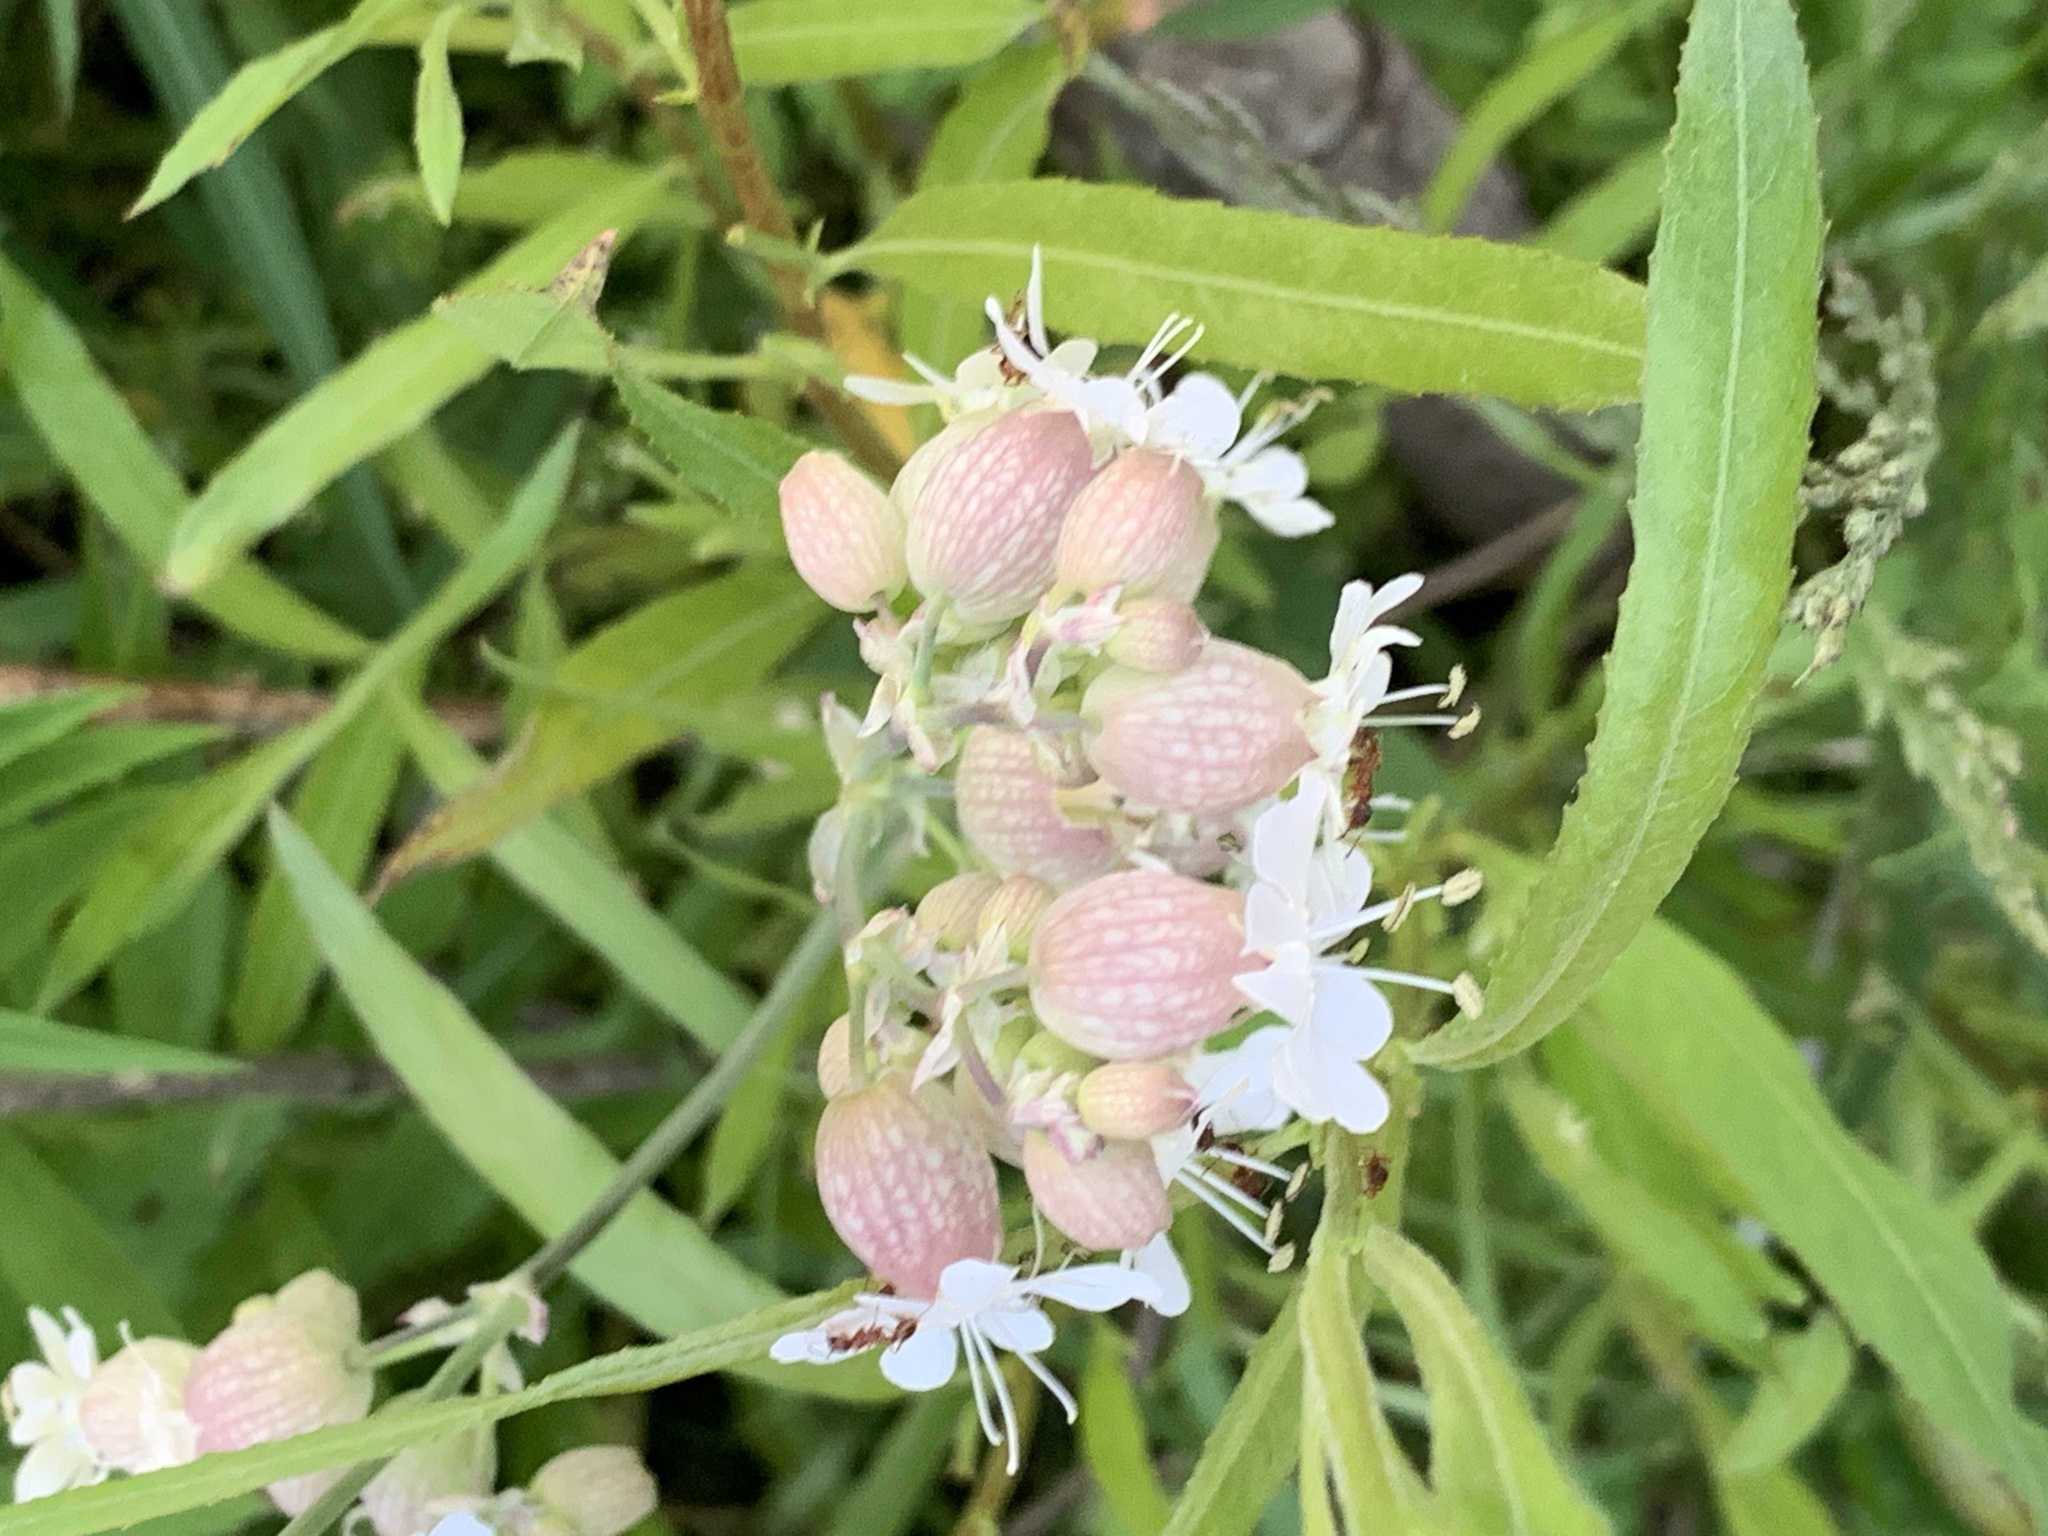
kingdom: Plantae
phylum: Tracheophyta
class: Magnoliopsida
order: Caryophyllales
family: Caryophyllaceae
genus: Silene
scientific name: Silene vulgaris
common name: Bladder campion
